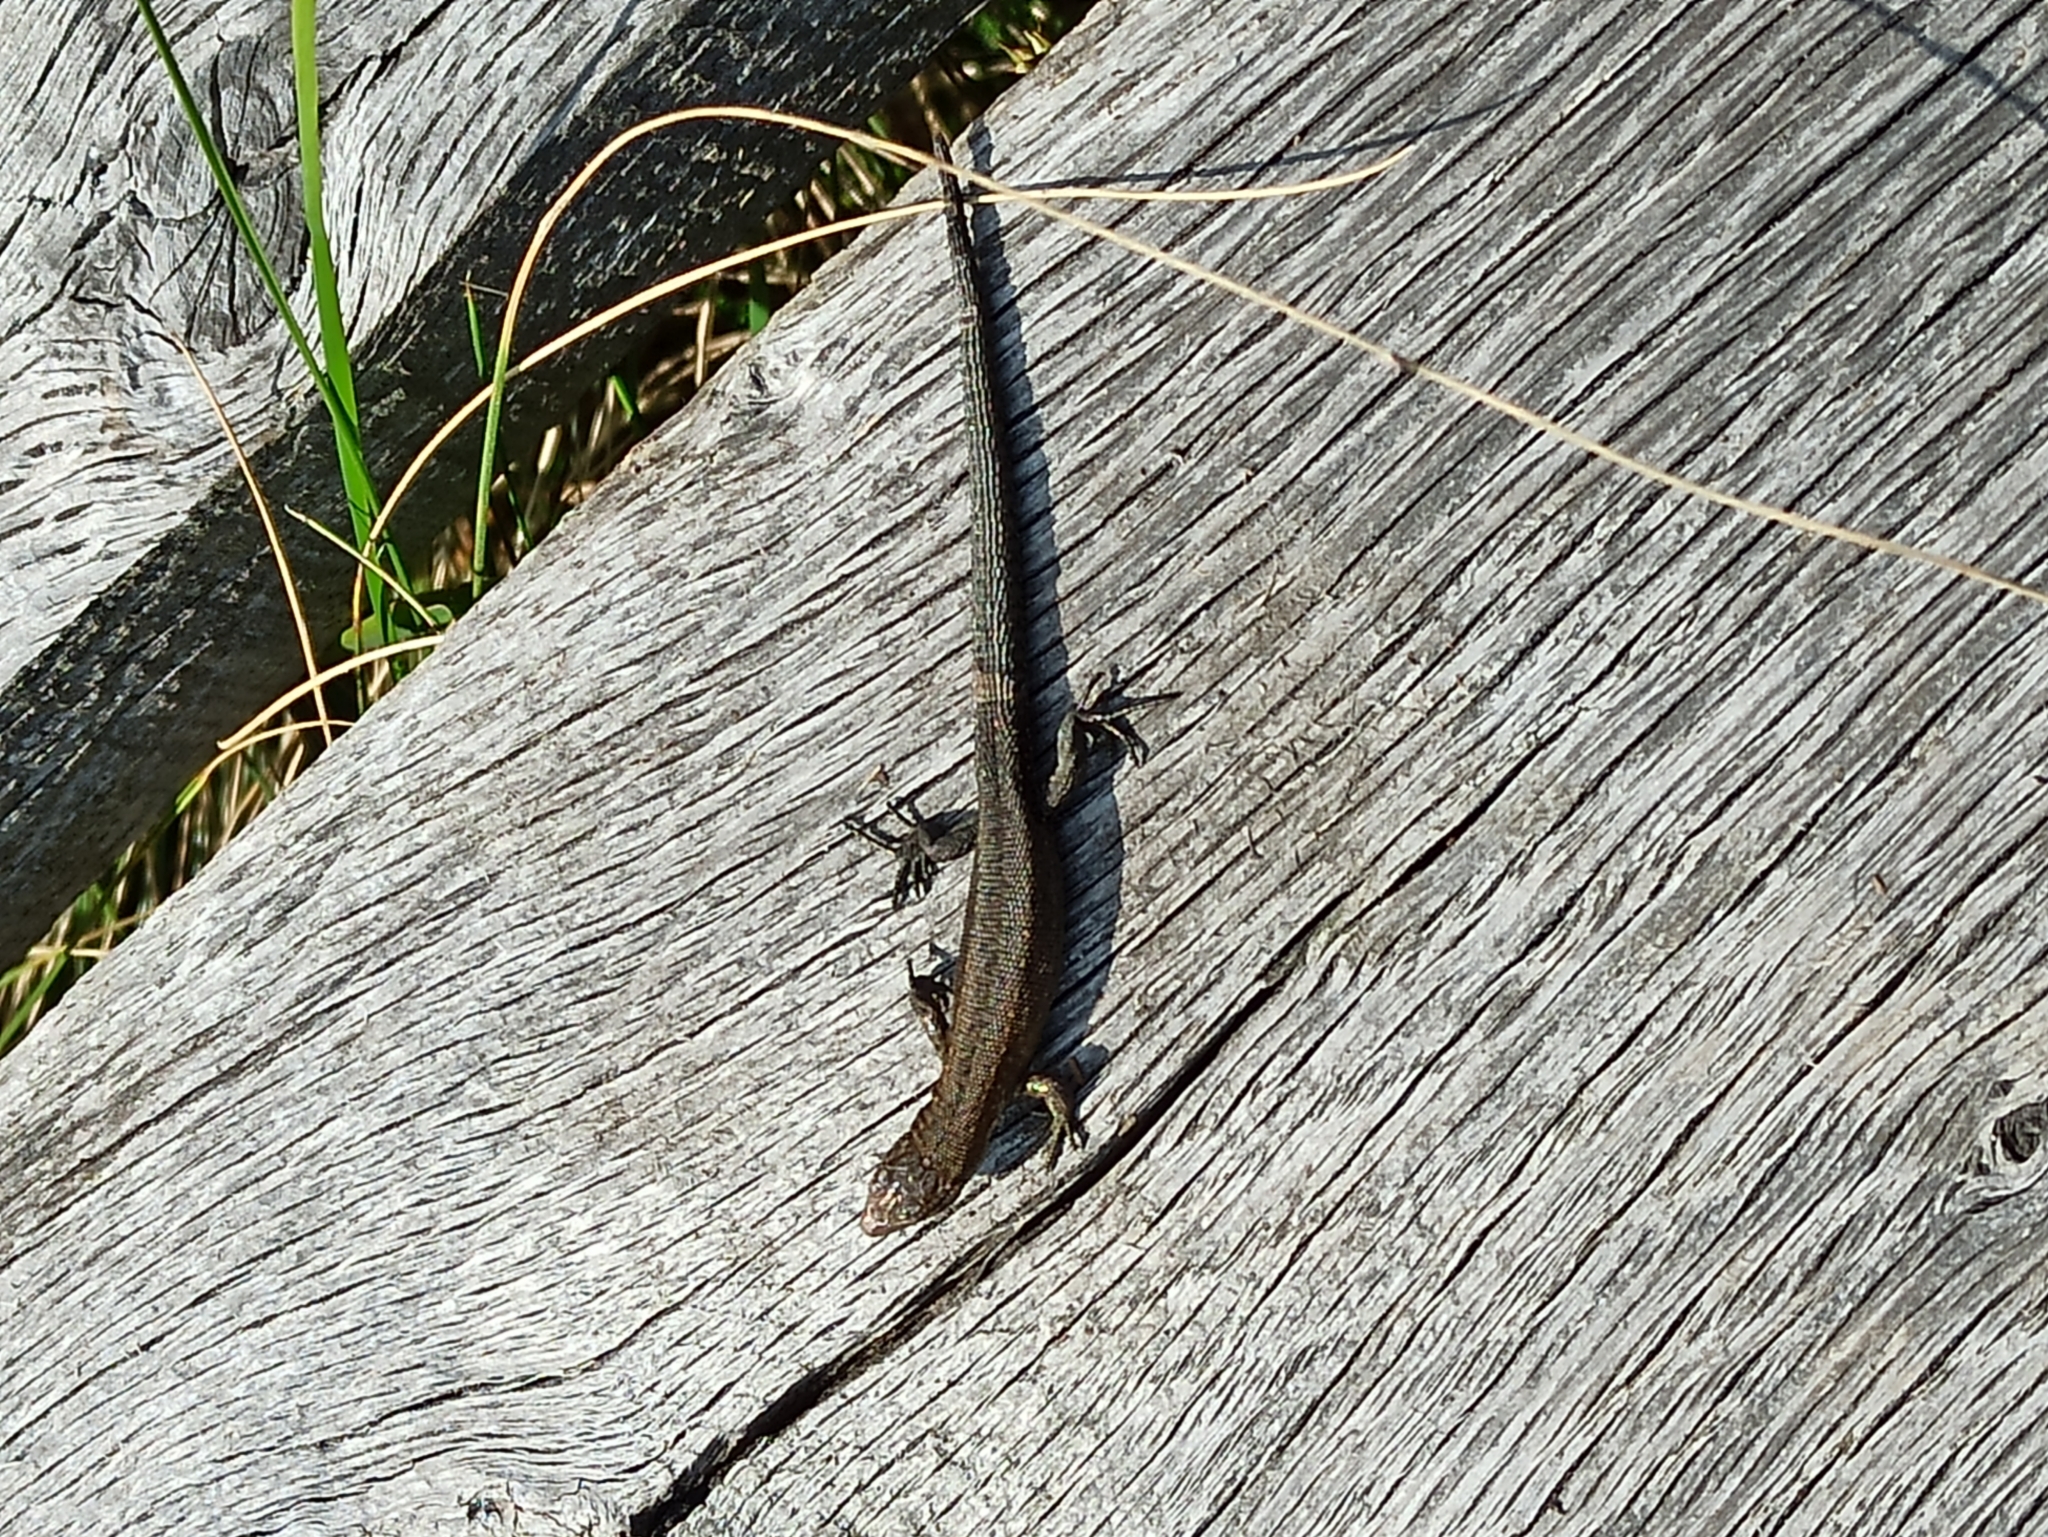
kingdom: Animalia
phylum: Chordata
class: Squamata
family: Lacertidae
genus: Zootoca
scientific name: Zootoca vivipara
